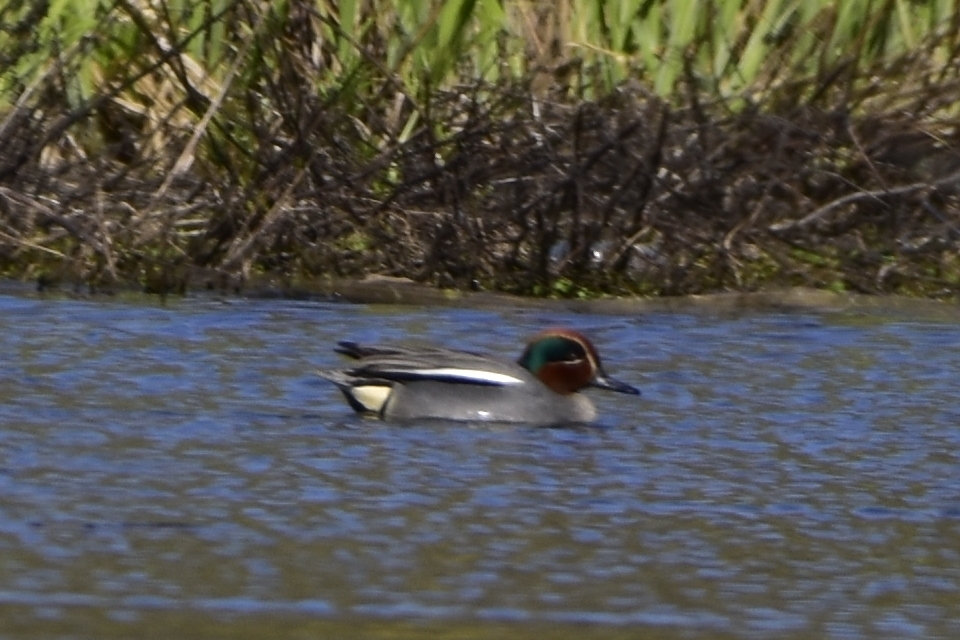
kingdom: Animalia
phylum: Chordata
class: Aves
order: Anseriformes
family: Anatidae
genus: Anas
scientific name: Anas crecca
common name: Eurasian teal
